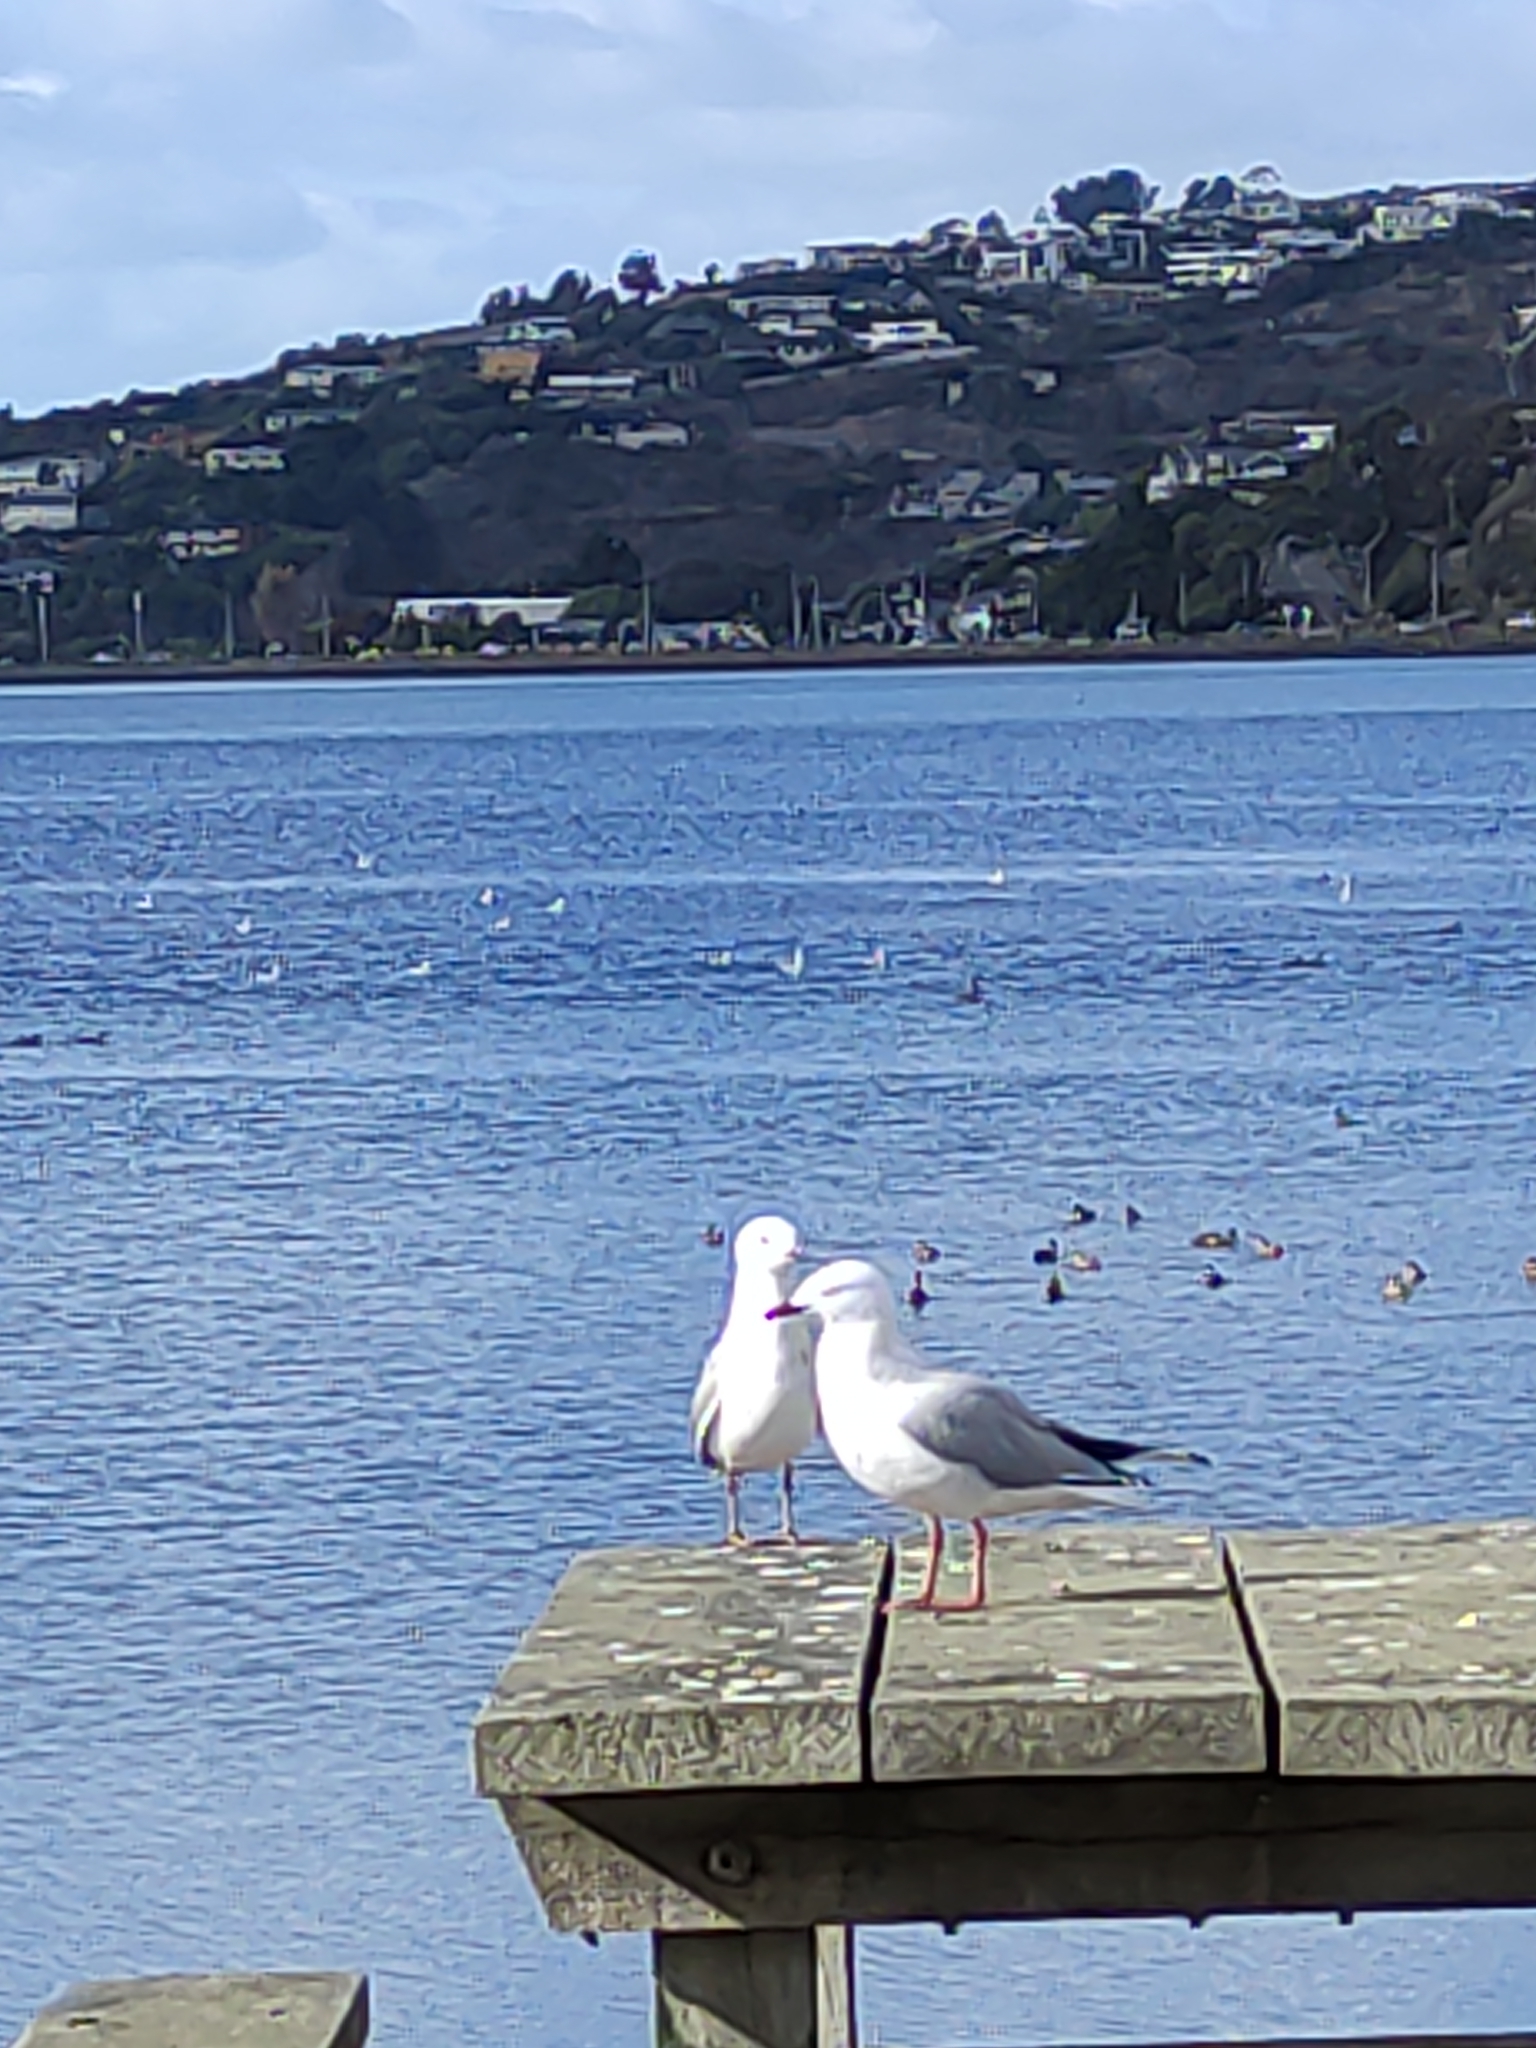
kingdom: Animalia
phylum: Chordata
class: Aves
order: Charadriiformes
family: Laridae
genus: Chroicocephalus
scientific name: Chroicocephalus novaehollandiae
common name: Silver gull
